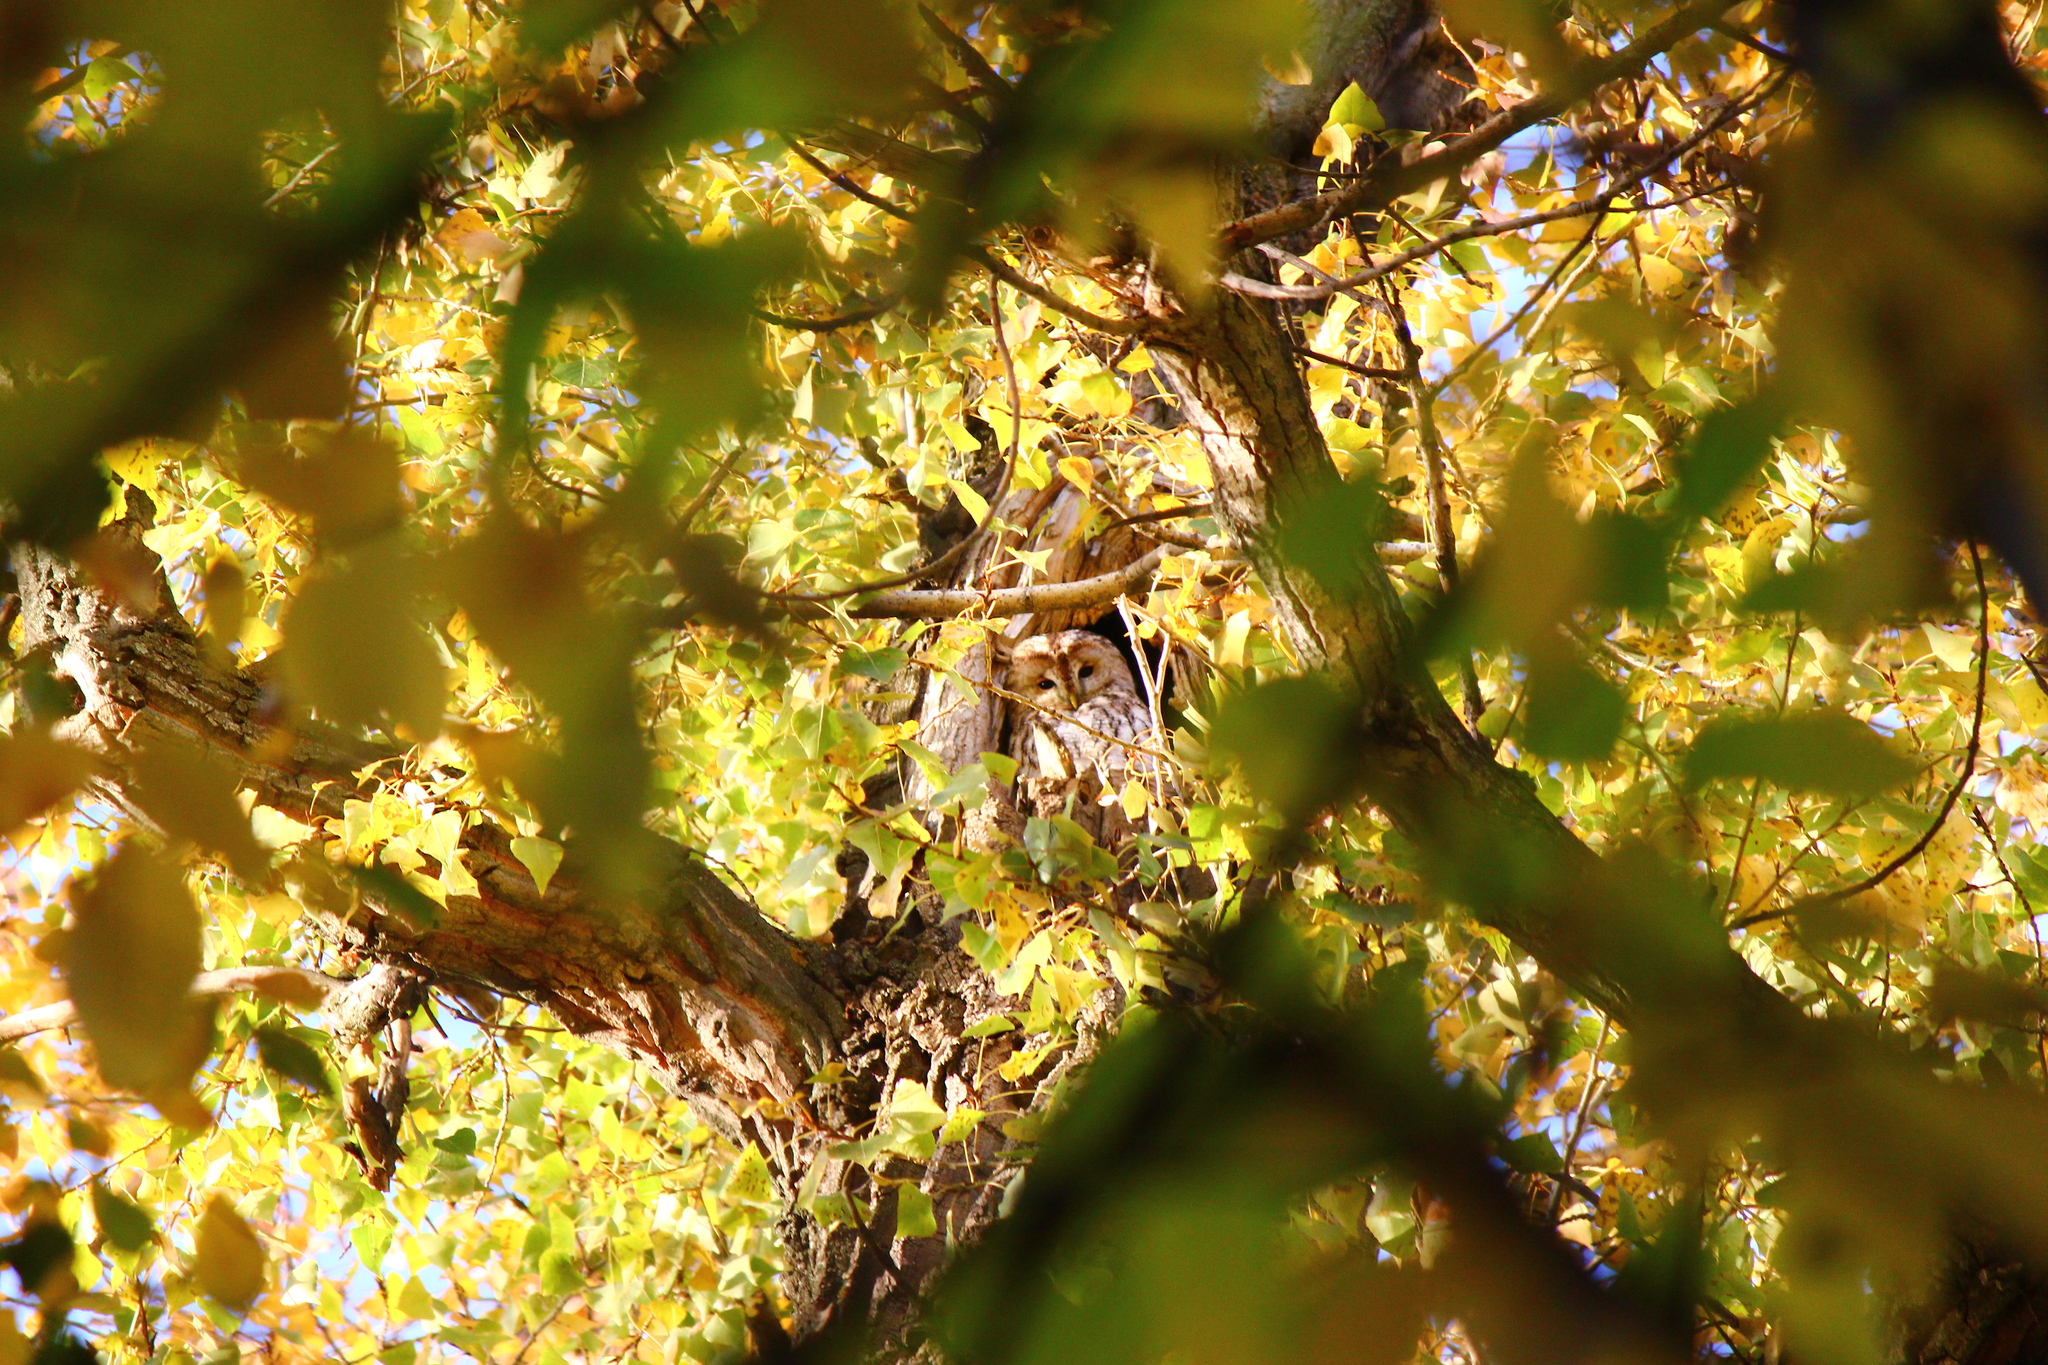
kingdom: Animalia
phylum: Chordata
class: Aves
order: Strigiformes
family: Strigidae
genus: Strix
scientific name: Strix aluco
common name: Tawny owl
